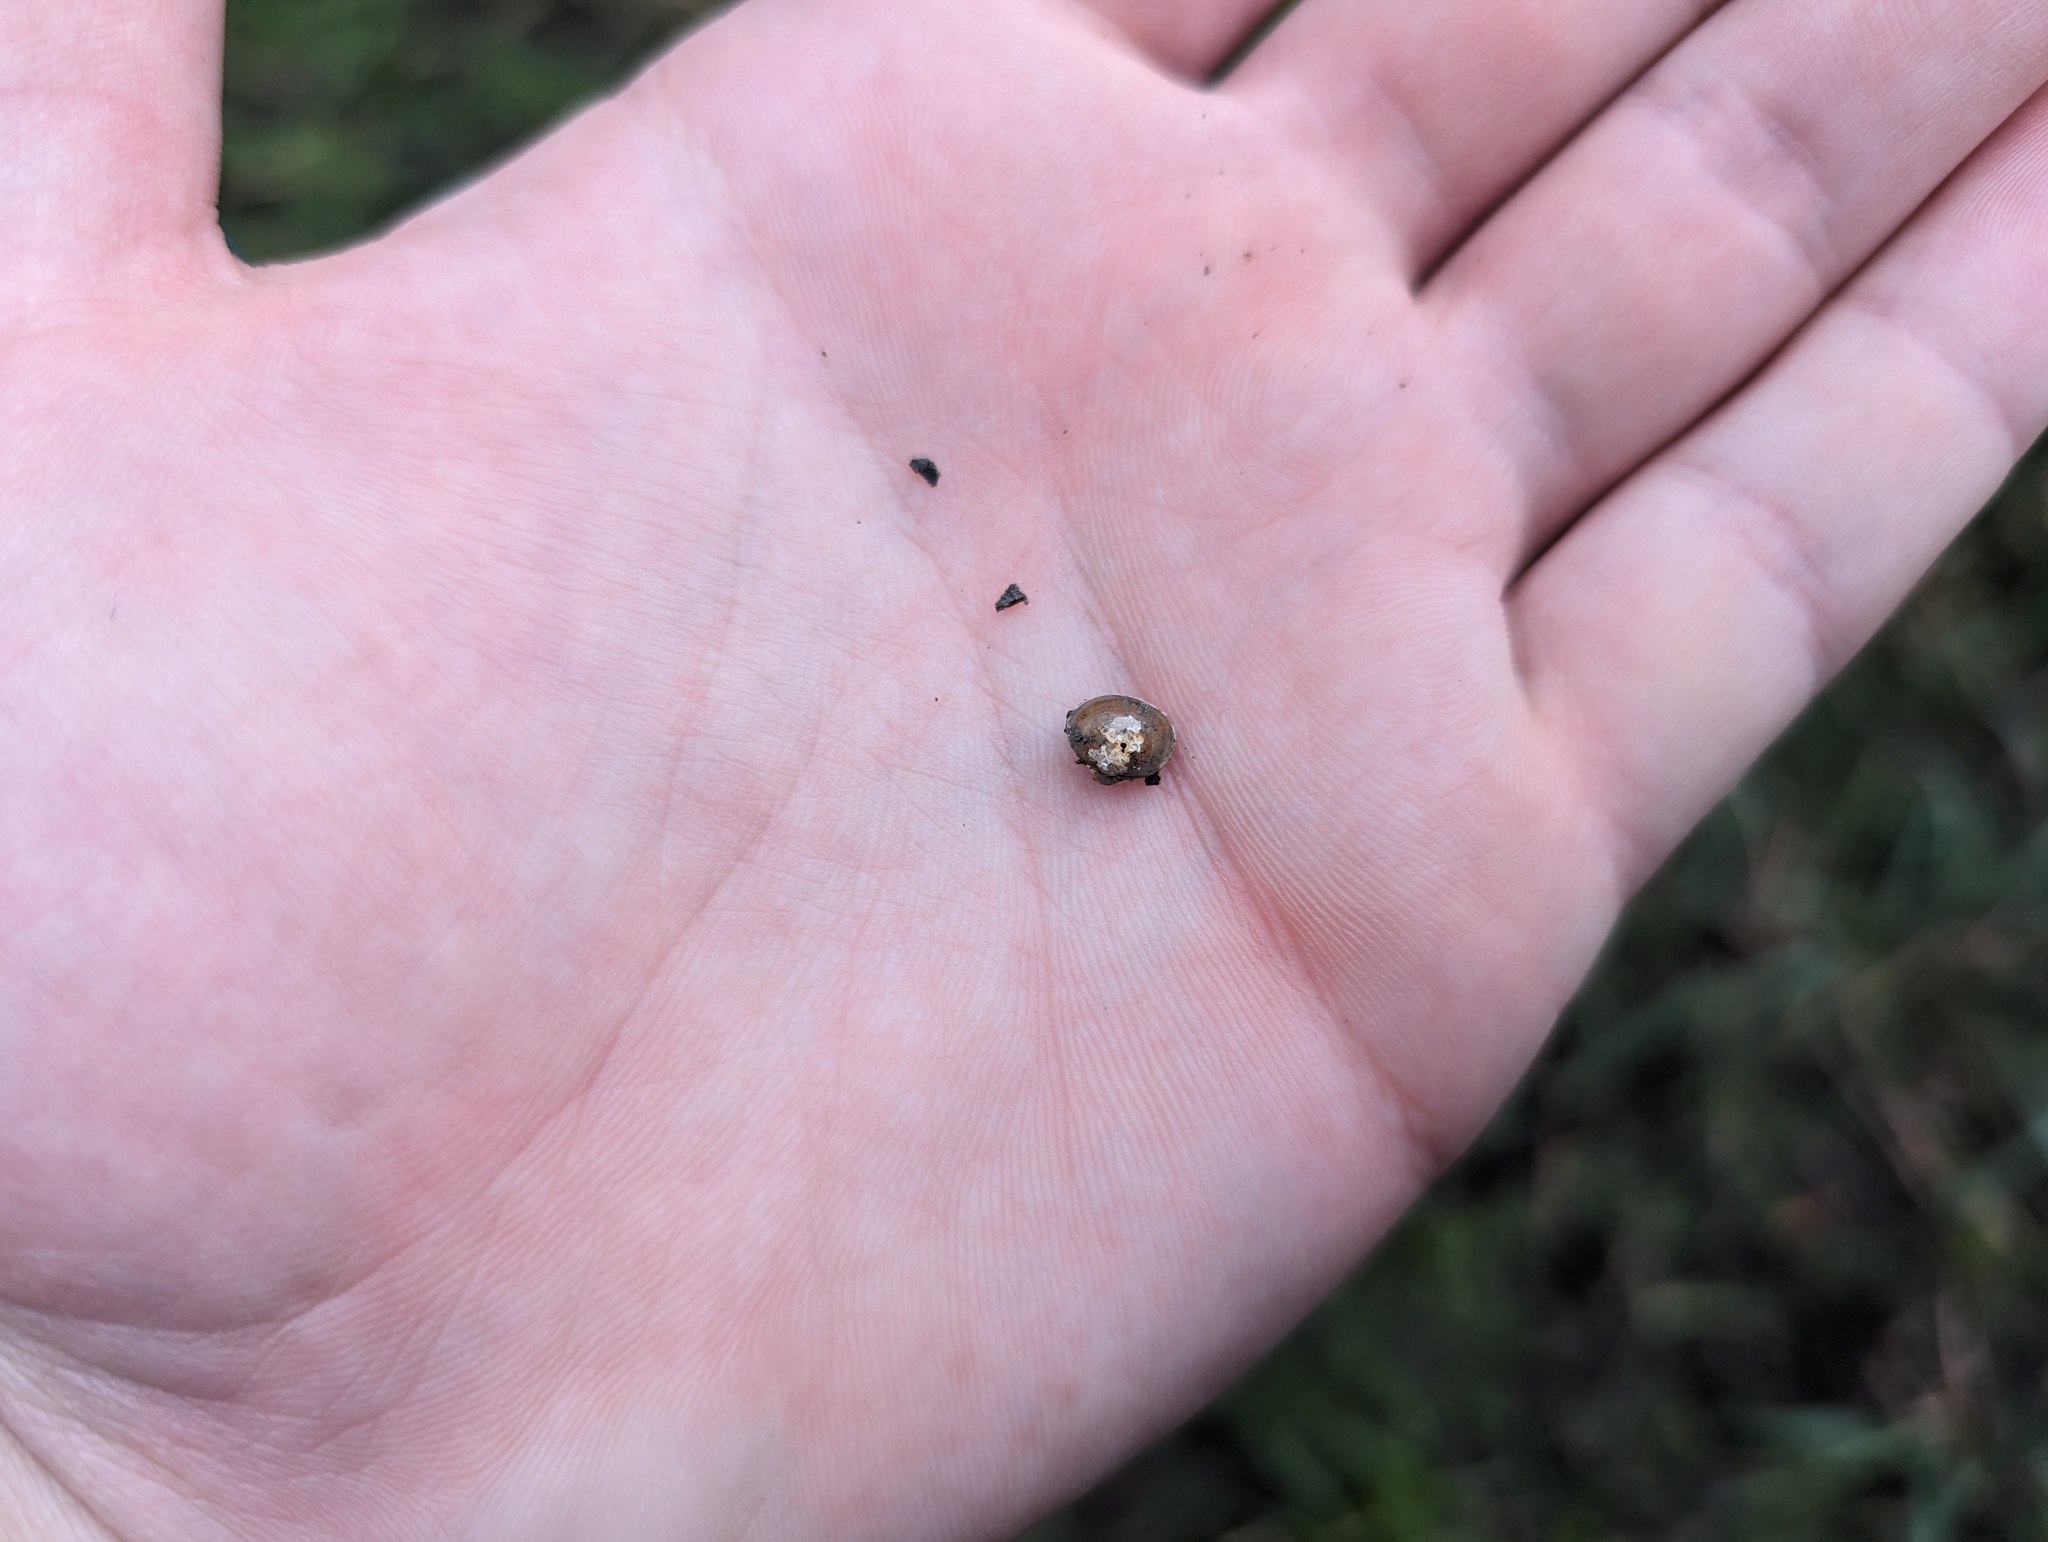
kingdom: Animalia
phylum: Mollusca
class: Bivalvia
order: Sphaeriida
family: Sphaeriidae
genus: Musculium
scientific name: Musculium lacustre
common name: Lake fingernailclam
